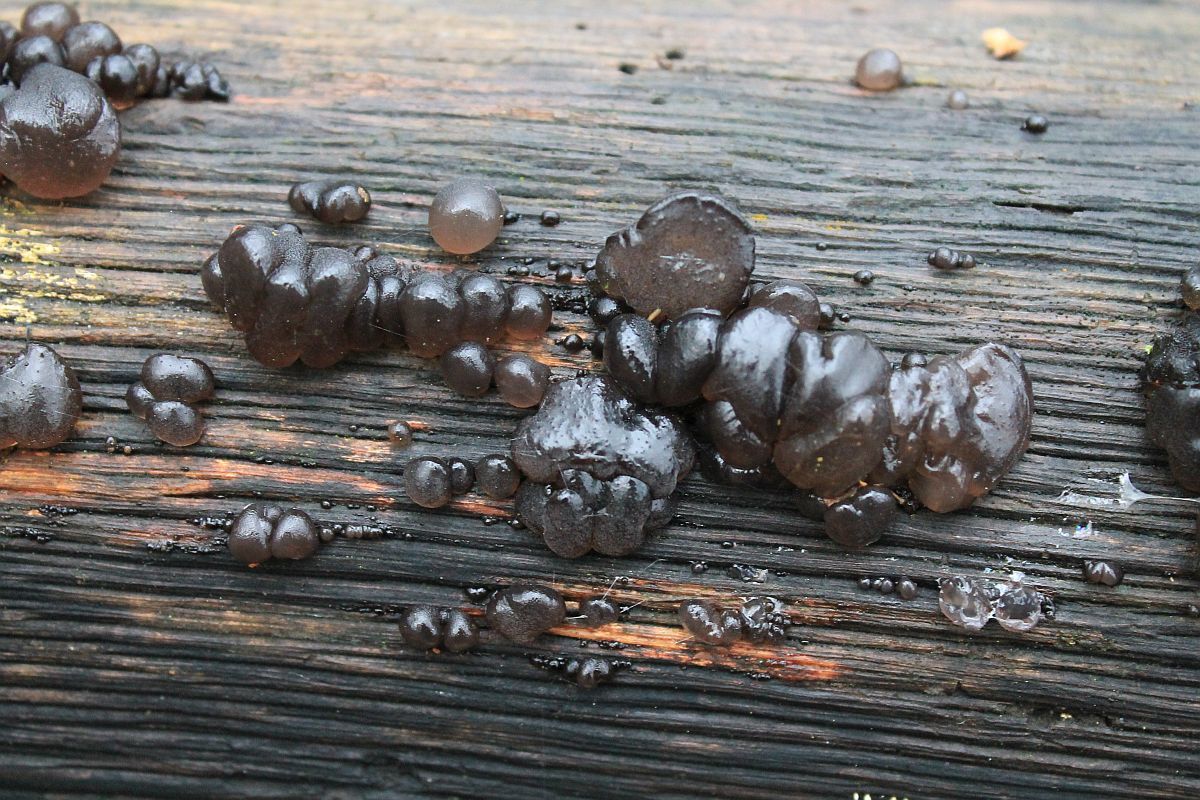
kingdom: Fungi
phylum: Basidiomycota
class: Agaricomycetes
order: Auriculariales
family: Auriculariaceae
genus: Exidia
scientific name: Exidia glandulosa
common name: Witches' butter
